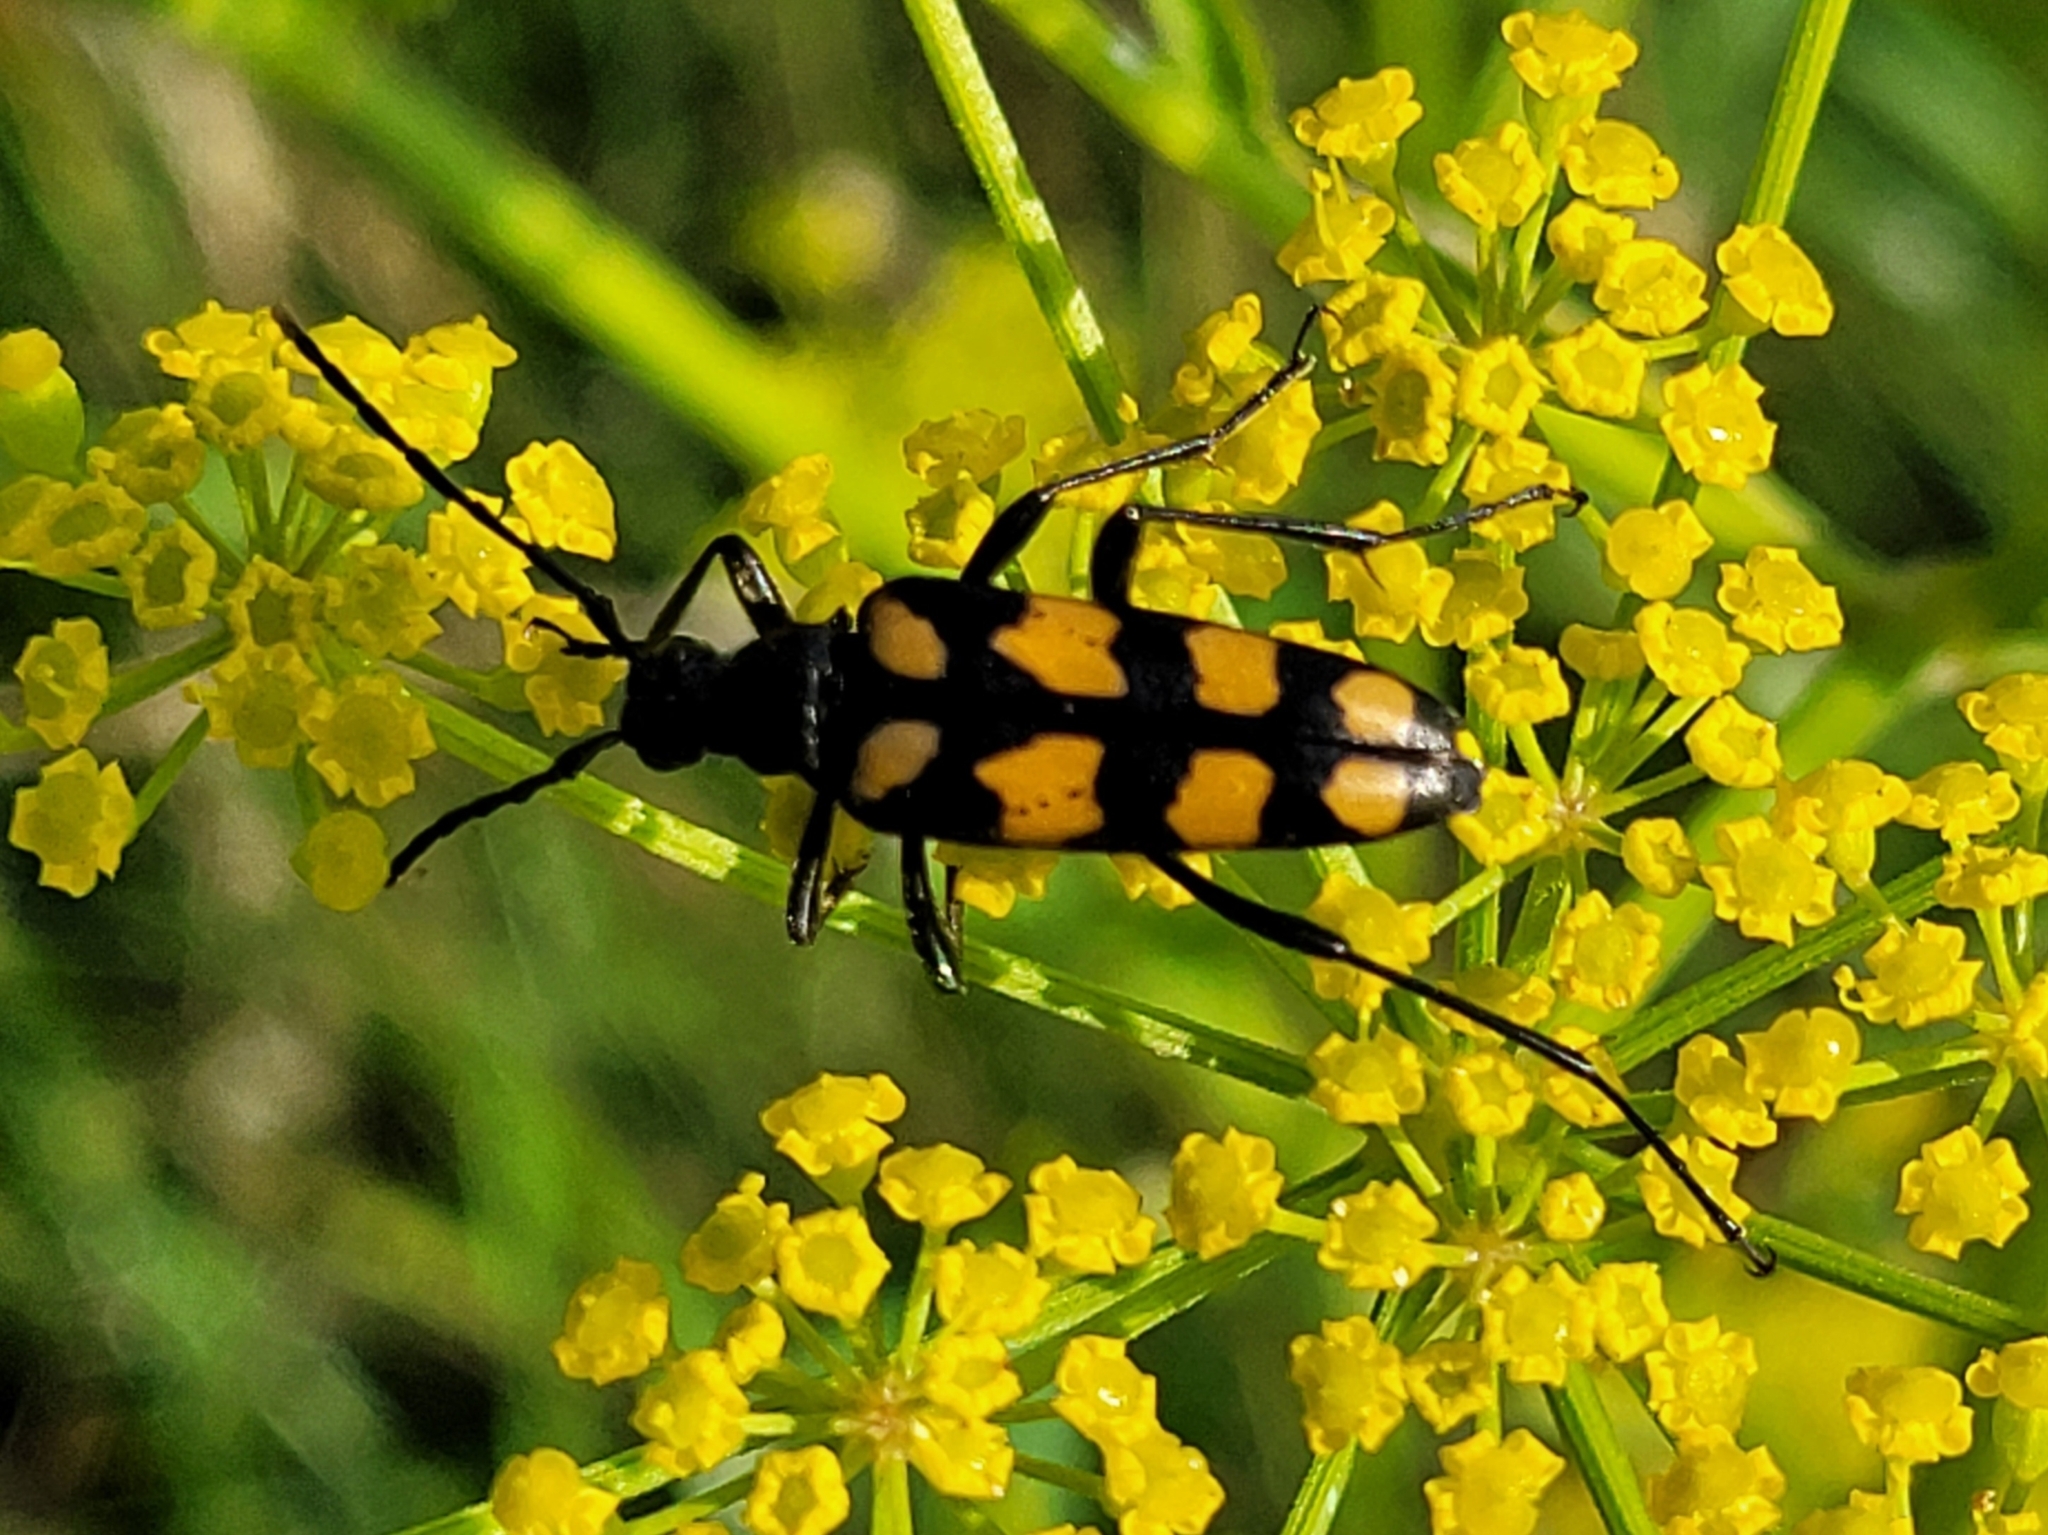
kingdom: Animalia
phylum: Arthropoda
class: Insecta
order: Coleoptera
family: Cerambycidae
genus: Leptura
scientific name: Leptura quadrifasciata
